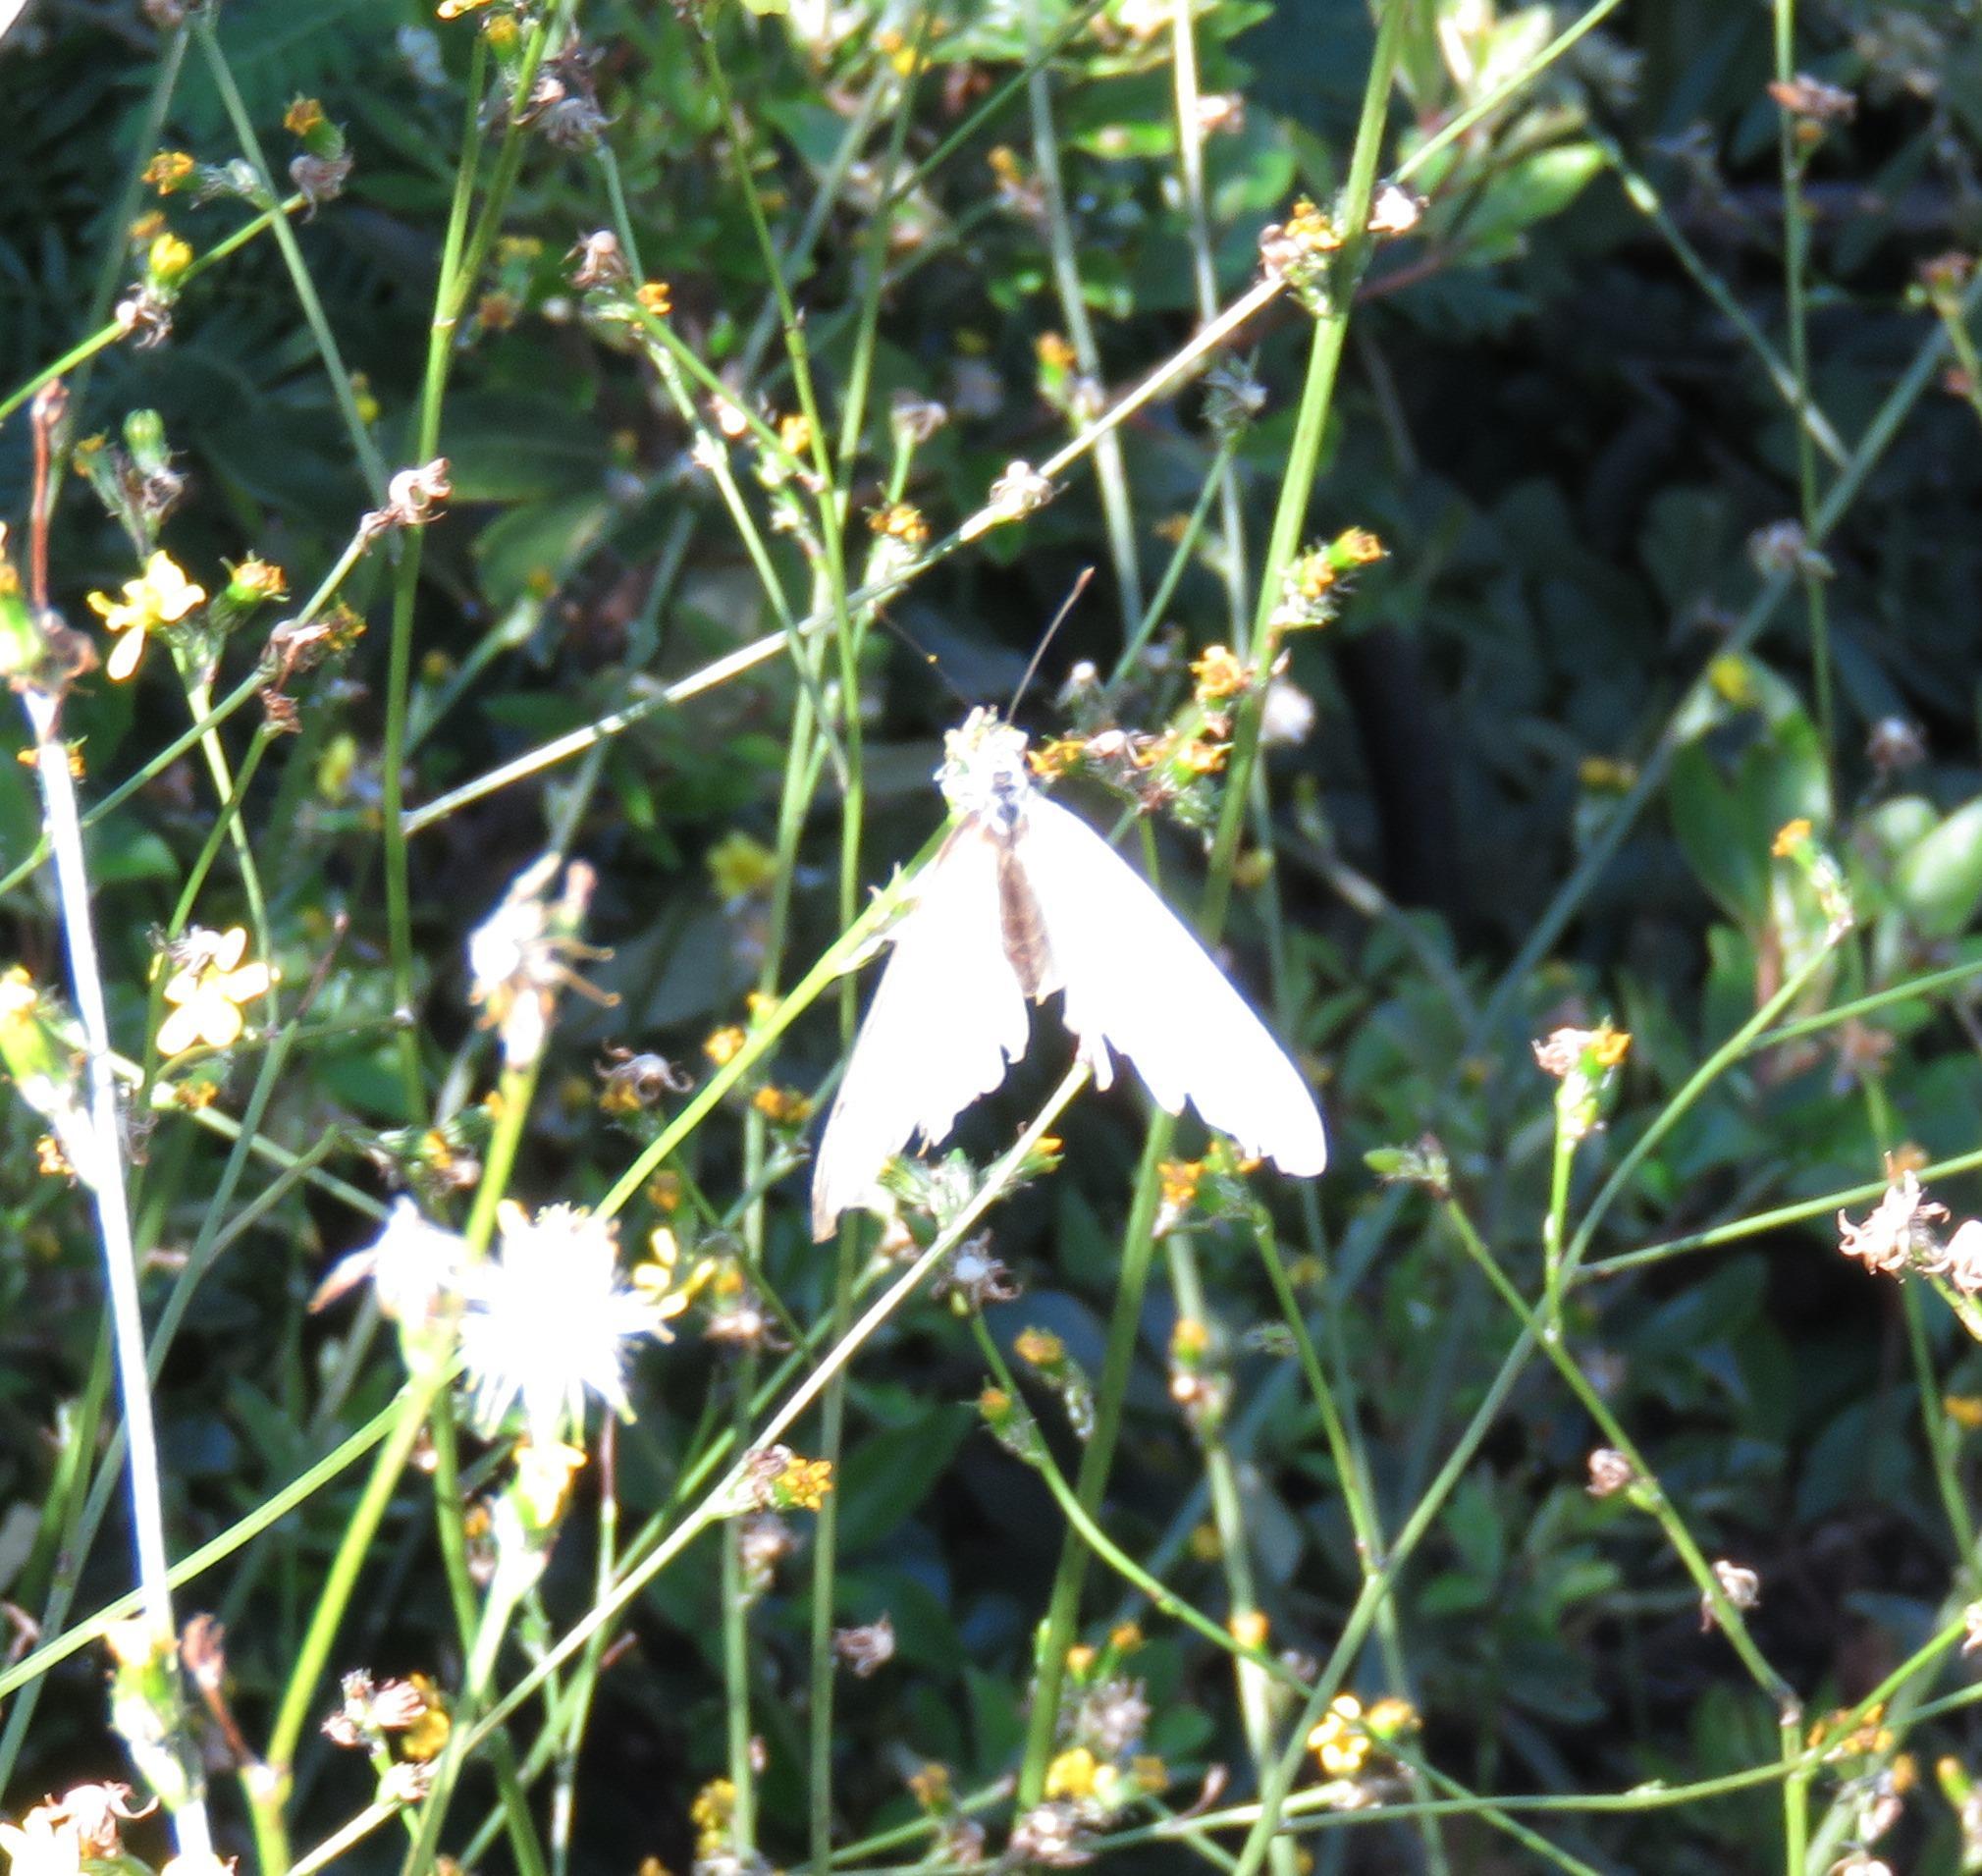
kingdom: Plantae
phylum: Tracheophyta
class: Magnoliopsida
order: Asterales
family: Asteraceae
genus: Senecio
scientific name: Senecio pubigerus
